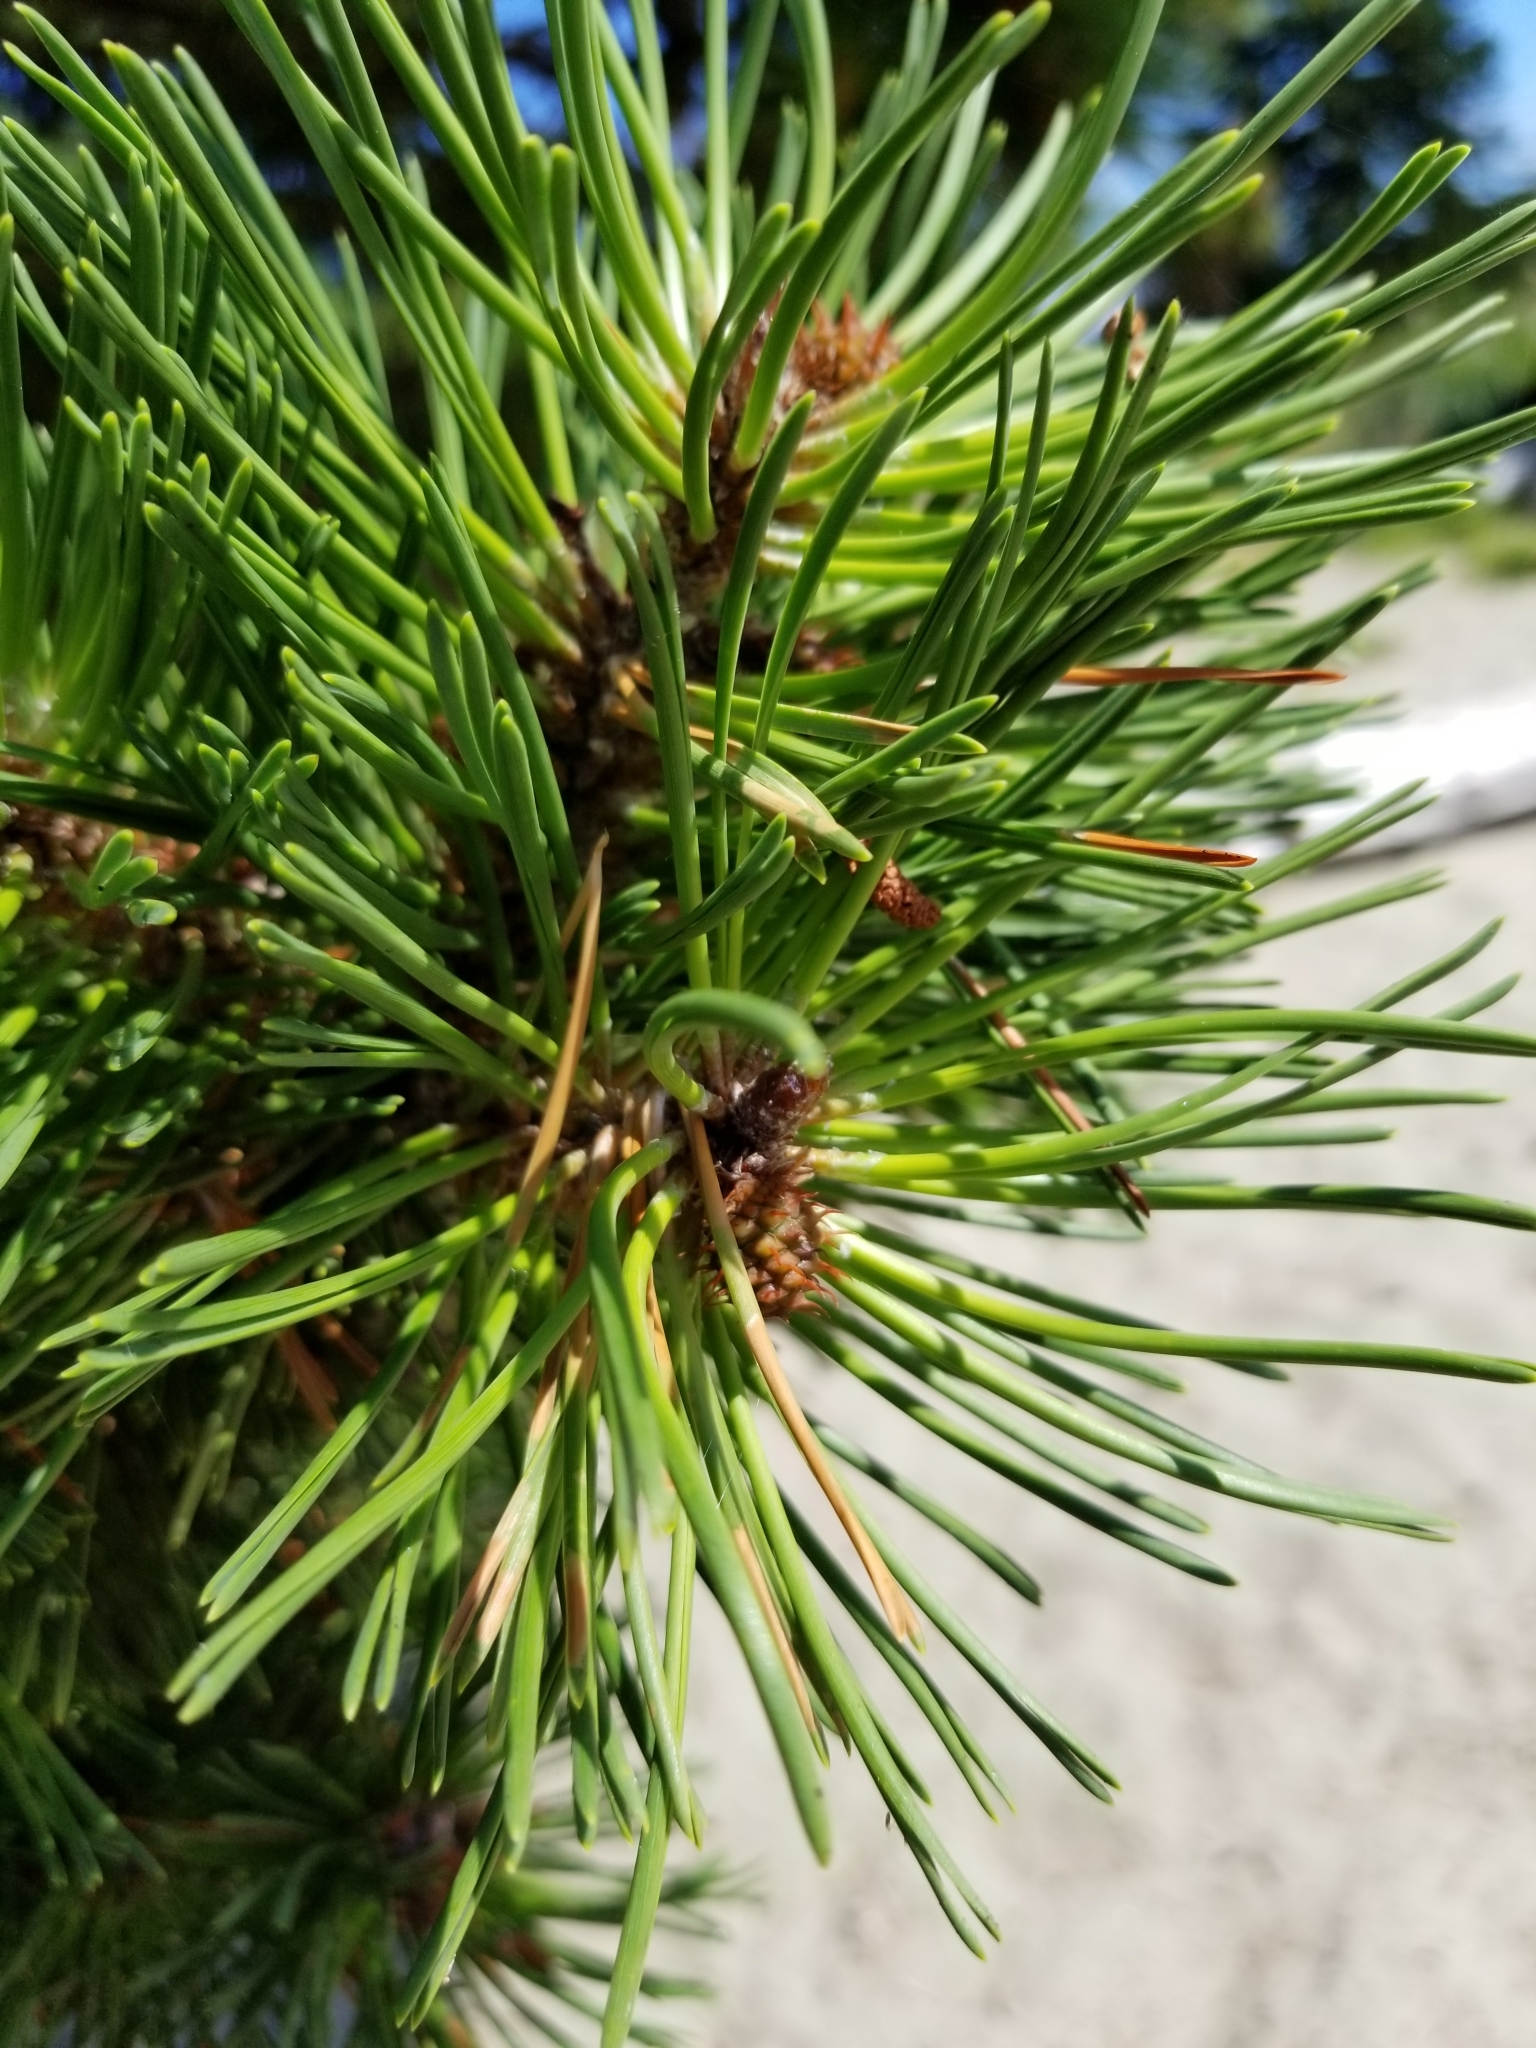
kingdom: Plantae
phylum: Tracheophyta
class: Pinopsida
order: Pinales
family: Pinaceae
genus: Pinus
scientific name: Pinus contorta
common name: Lodgepole pine
